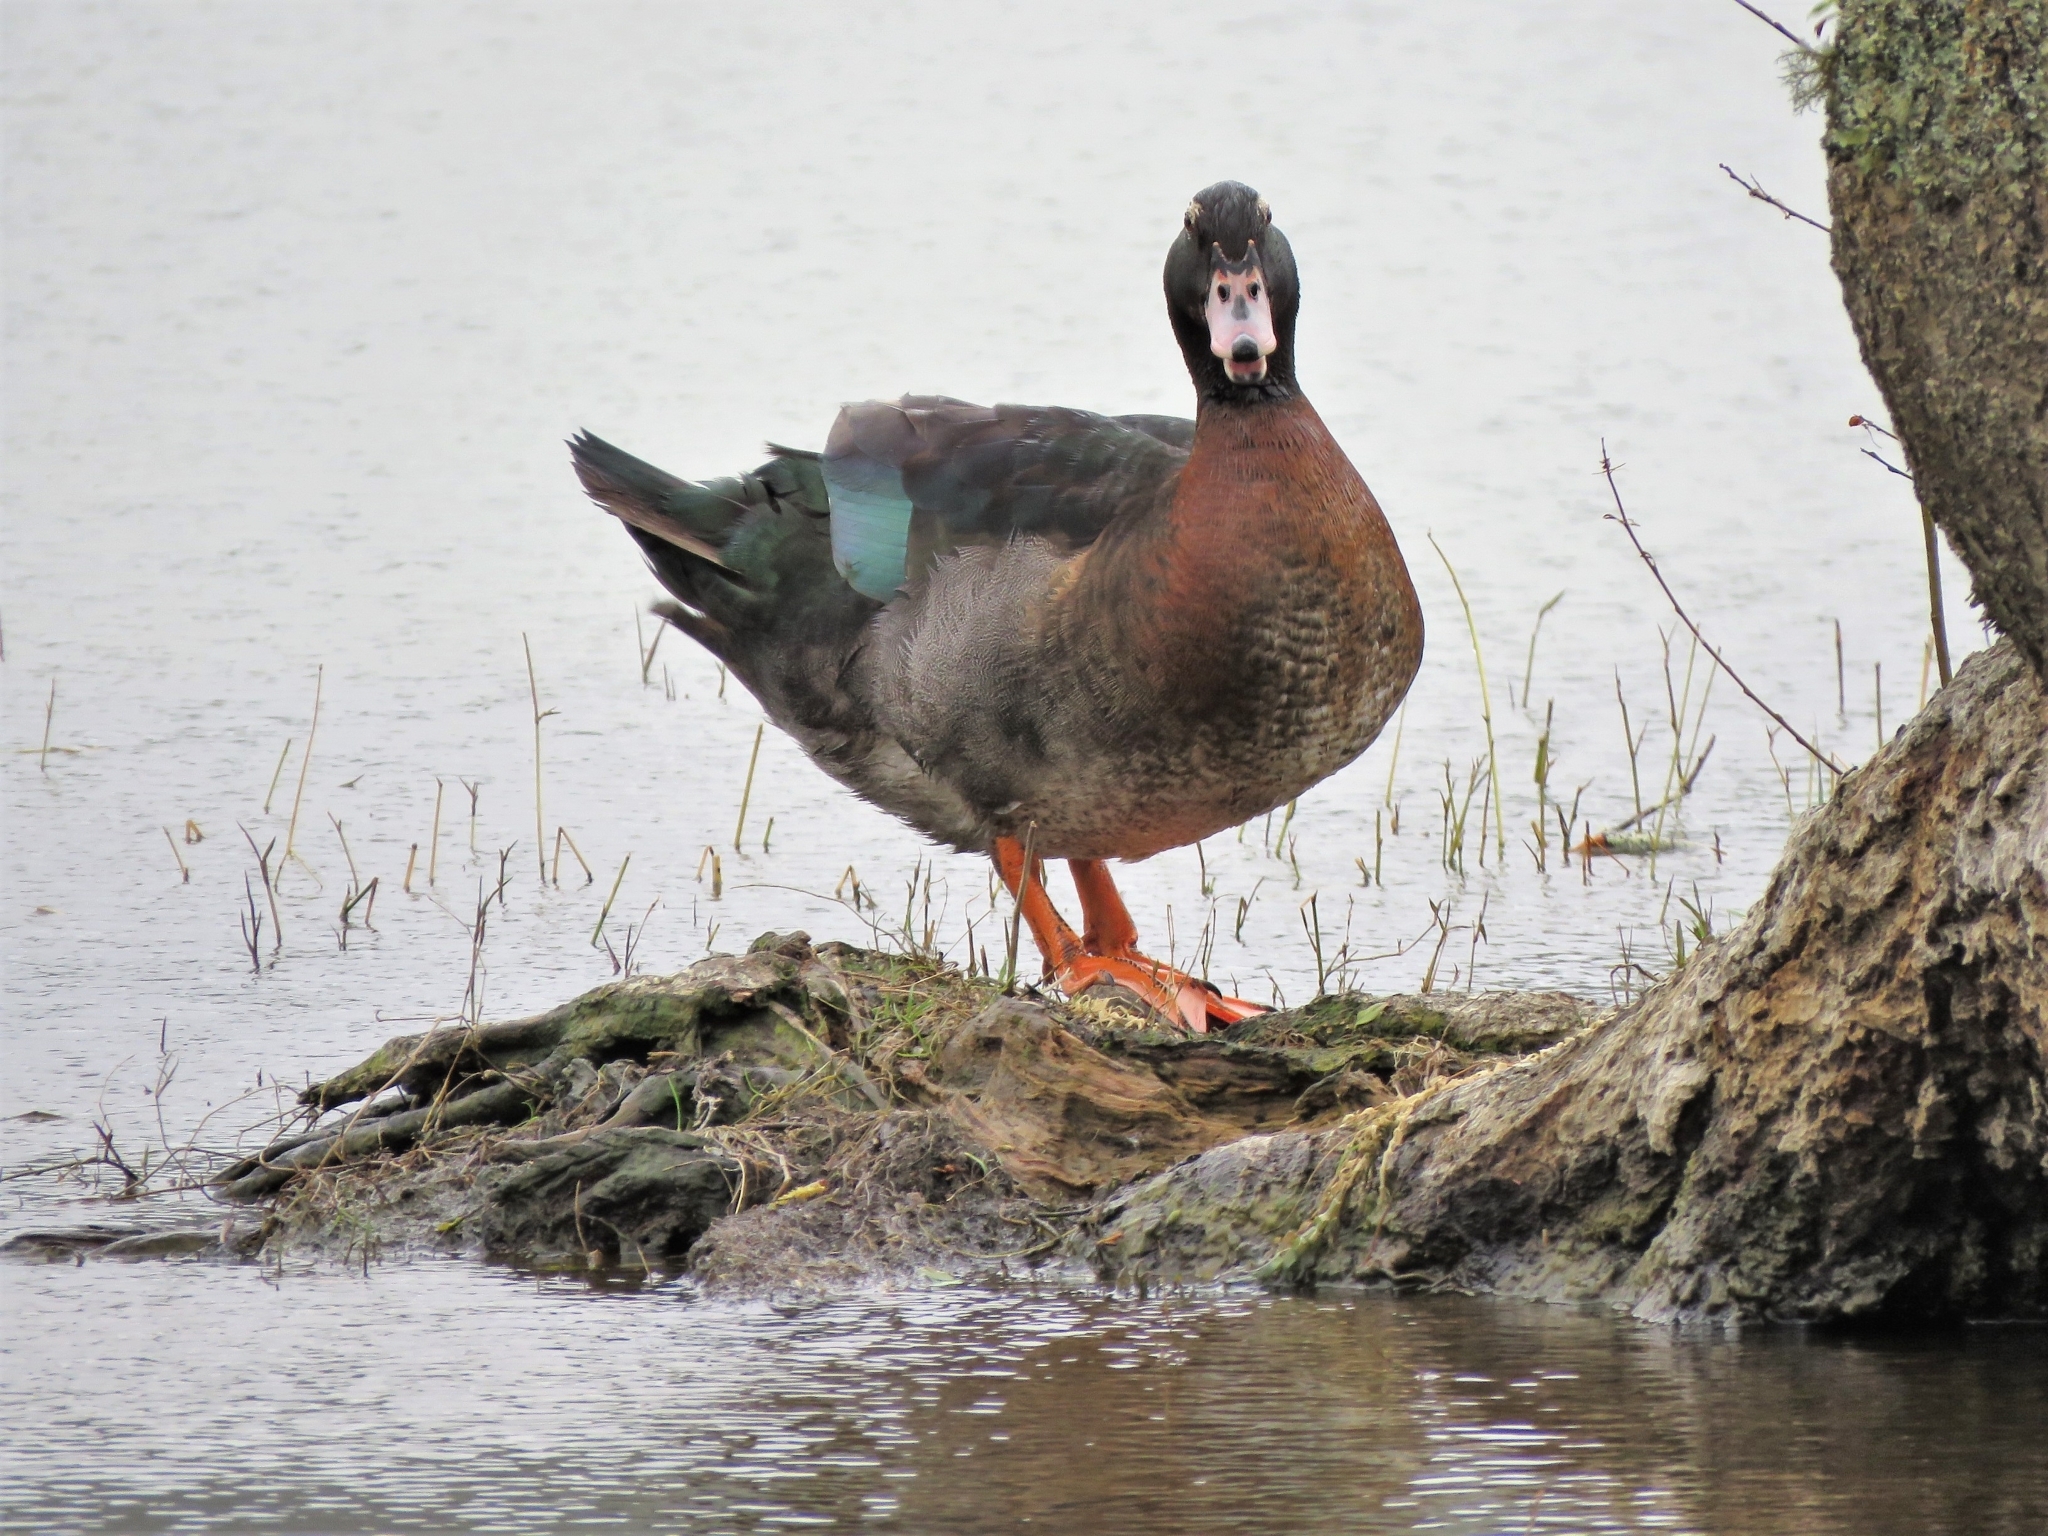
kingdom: Animalia
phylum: Chordata
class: Aves
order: Anseriformes
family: Anatidae
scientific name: Anatidae
